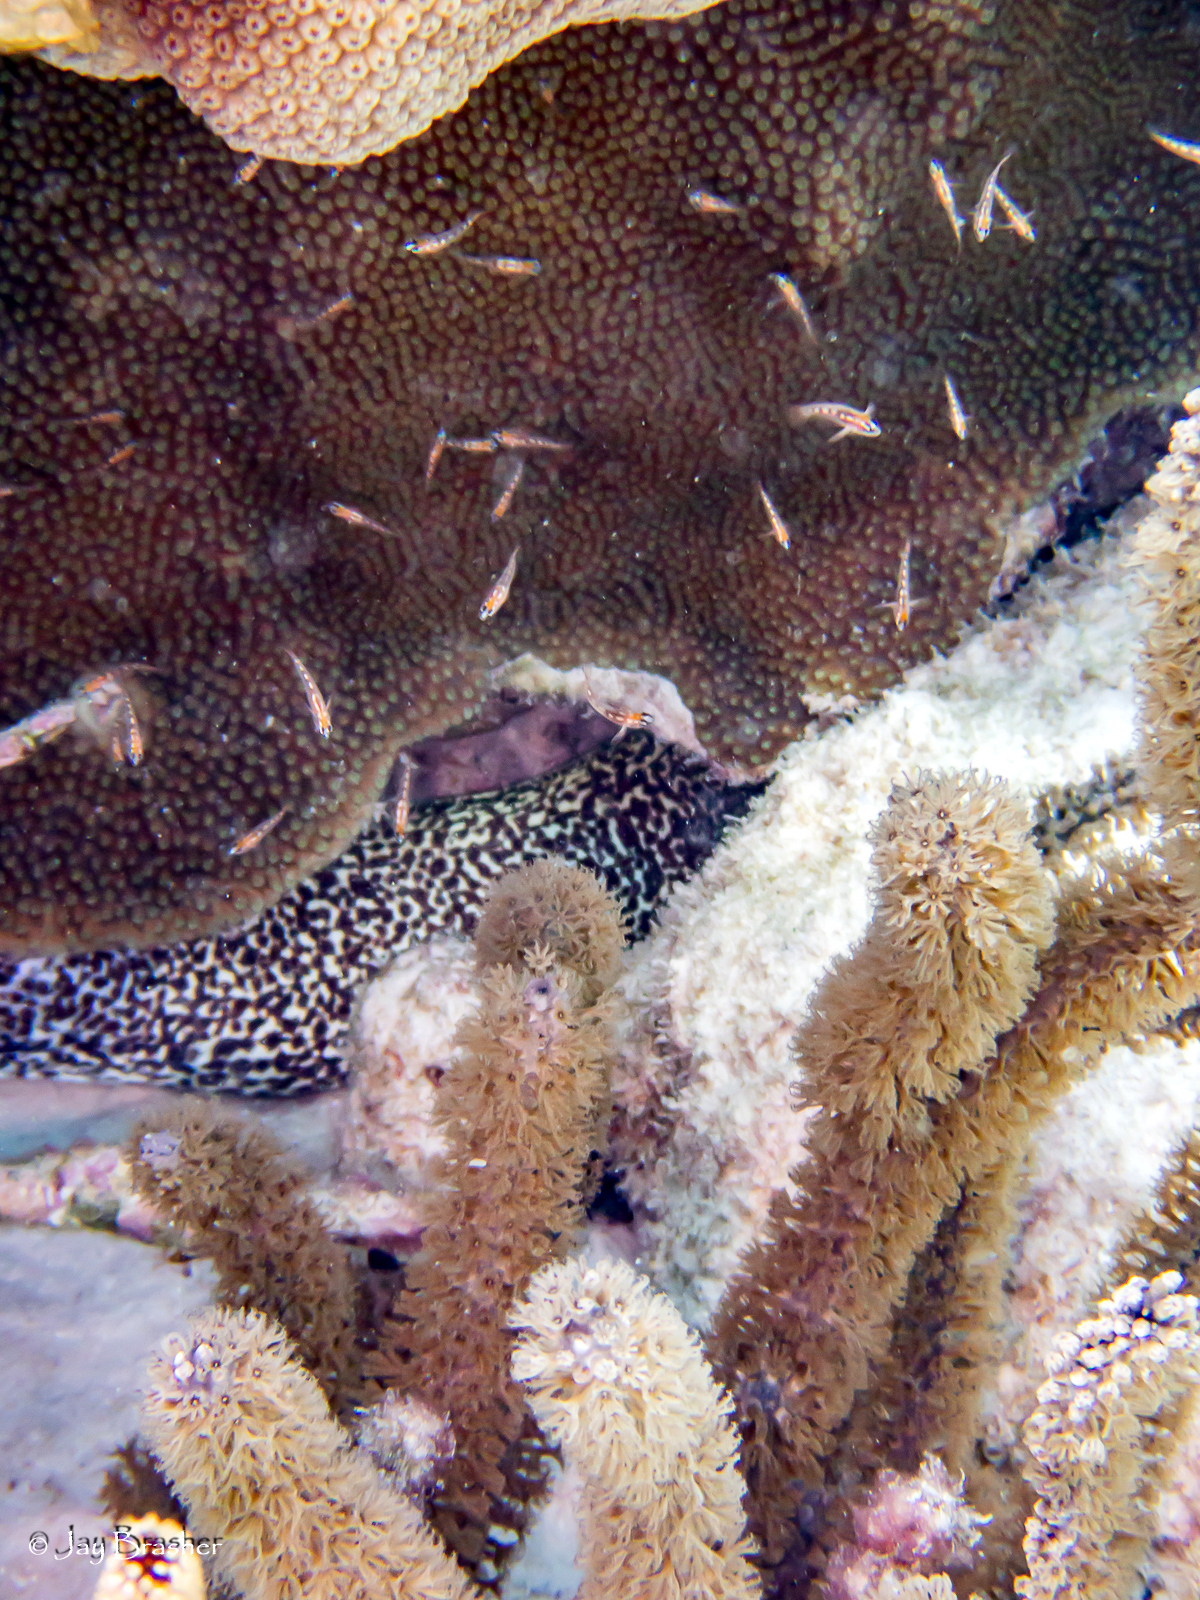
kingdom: Animalia
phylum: Chordata
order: Anguilliformes
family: Muraenidae
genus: Gymnothorax
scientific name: Gymnothorax moringa
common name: Spotted moray
